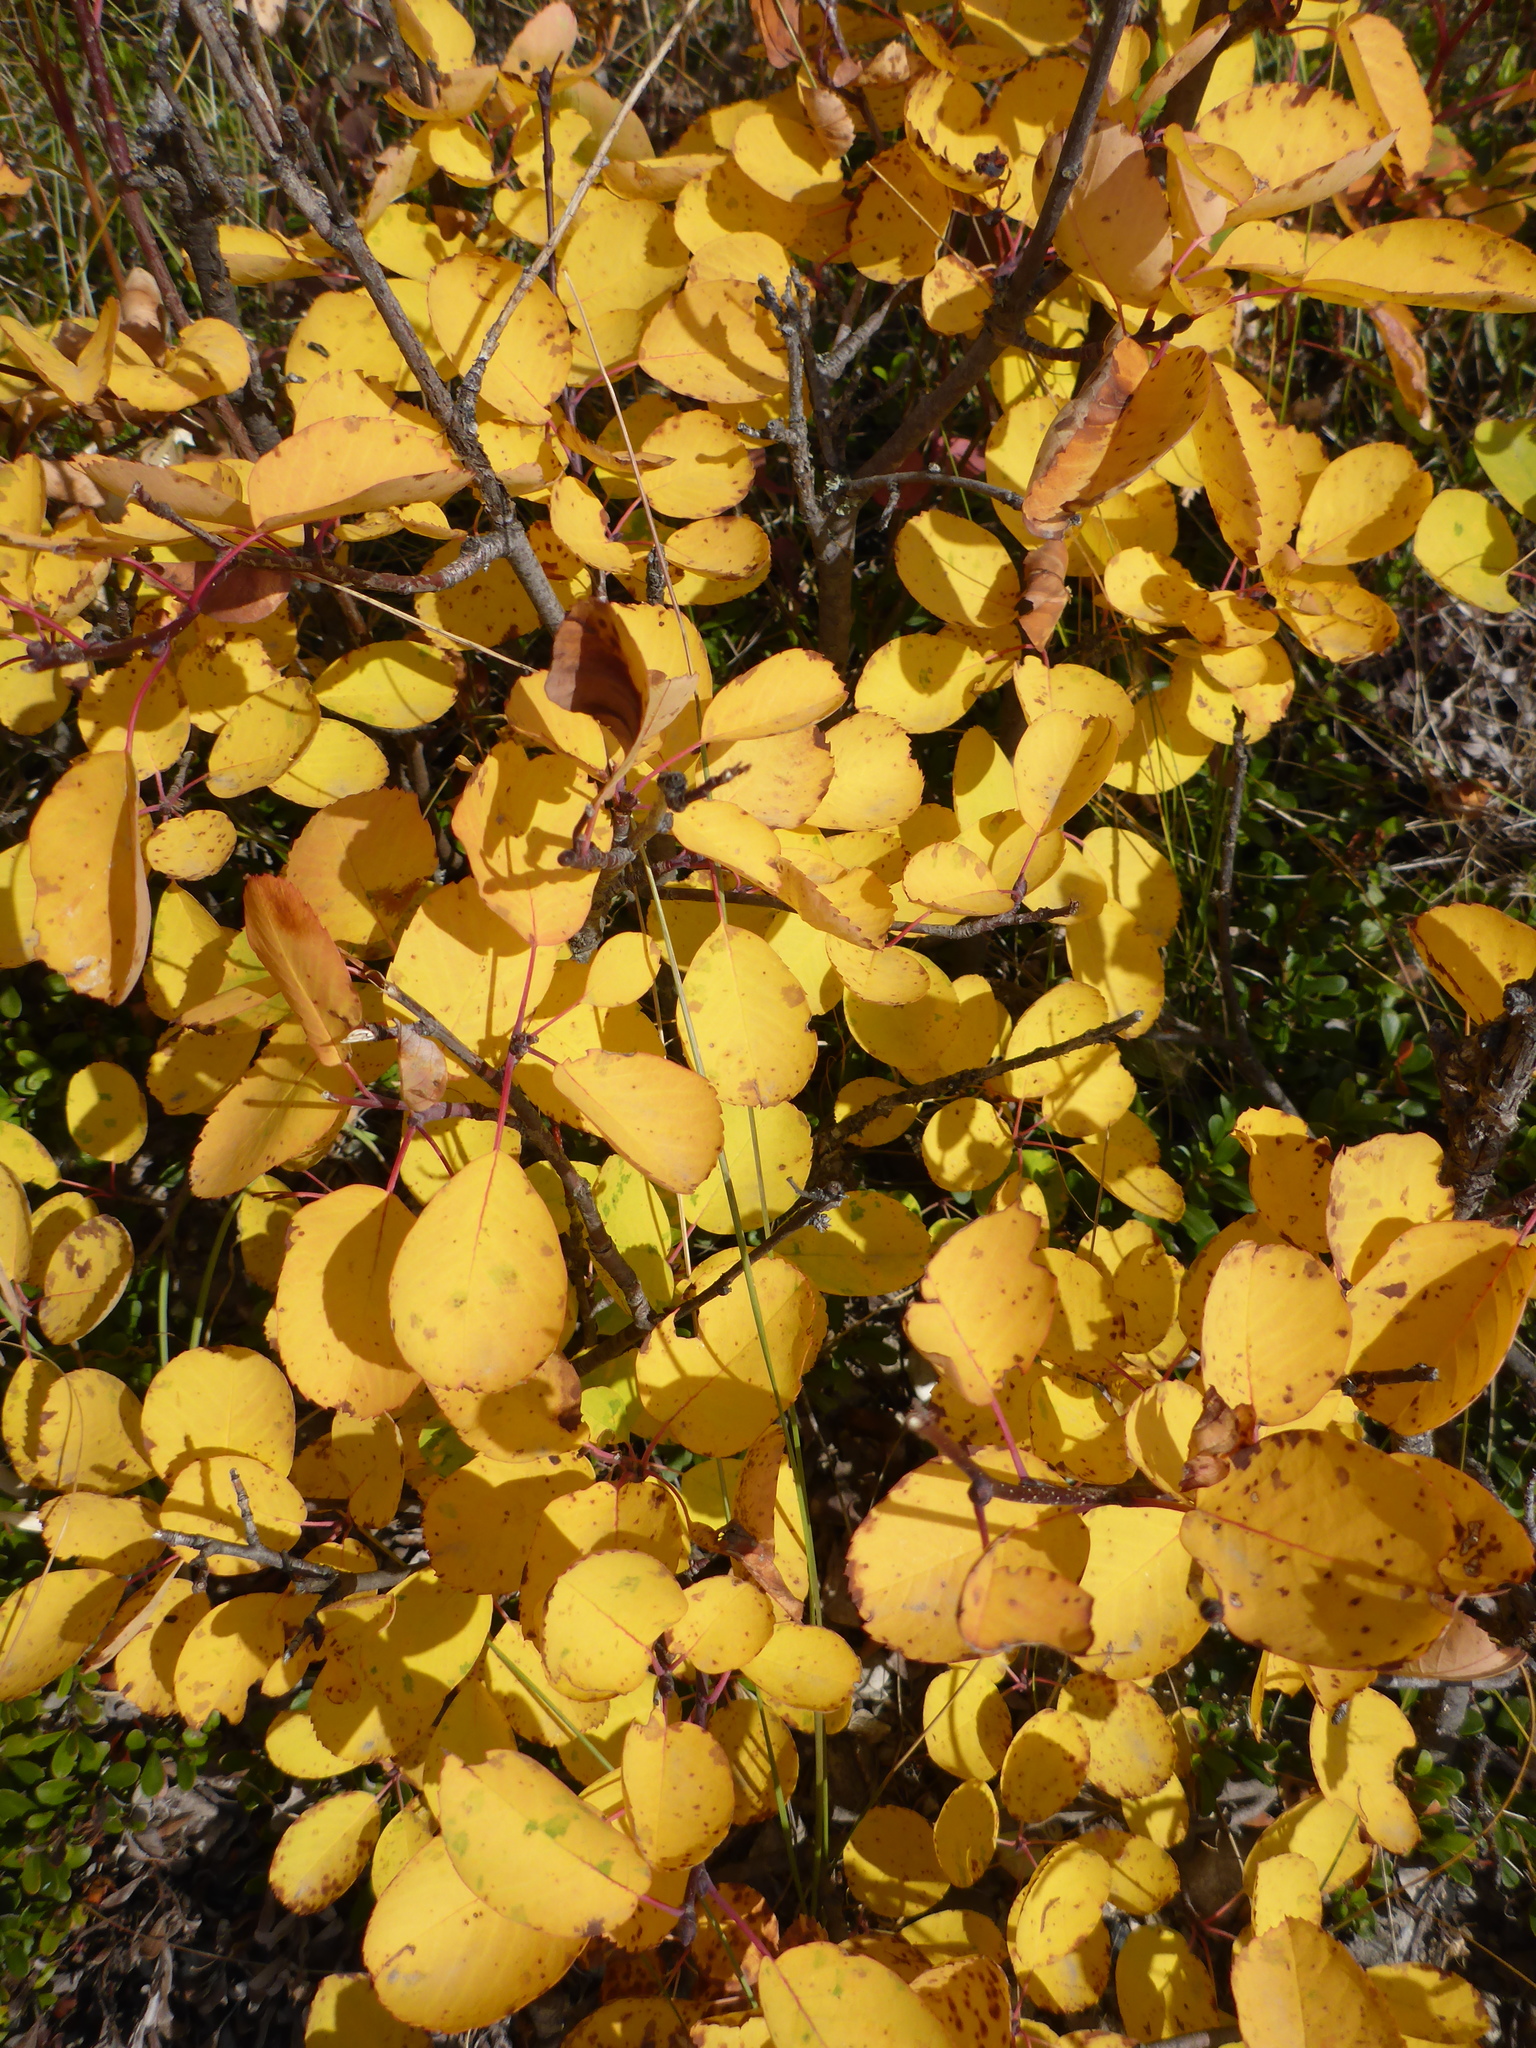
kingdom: Plantae
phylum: Tracheophyta
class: Magnoliopsida
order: Rosales
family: Rosaceae
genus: Amelanchier
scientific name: Amelanchier alnifolia
